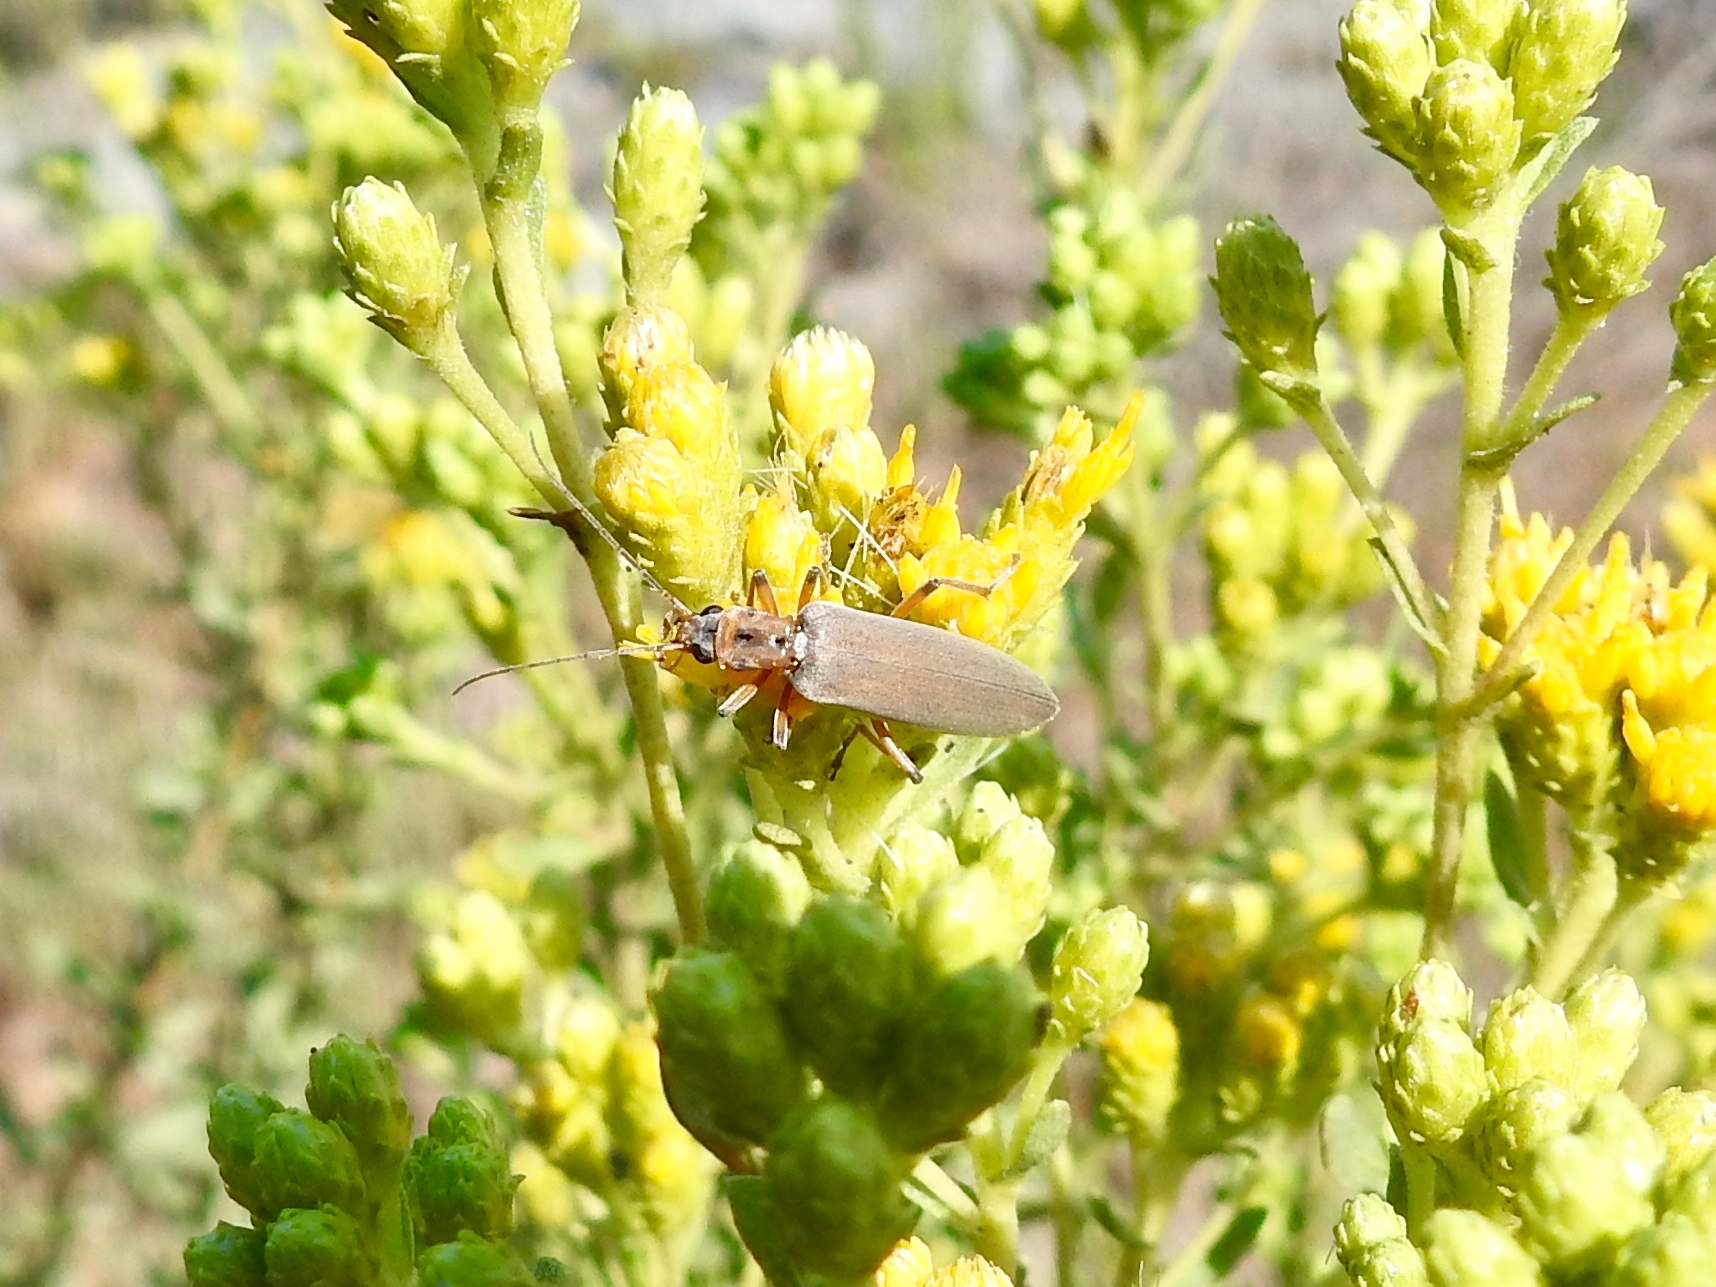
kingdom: Animalia
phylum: Arthropoda
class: Insecta
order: Coleoptera
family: Oedemeridae
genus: Copidita
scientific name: Copidita quadrimaculata
